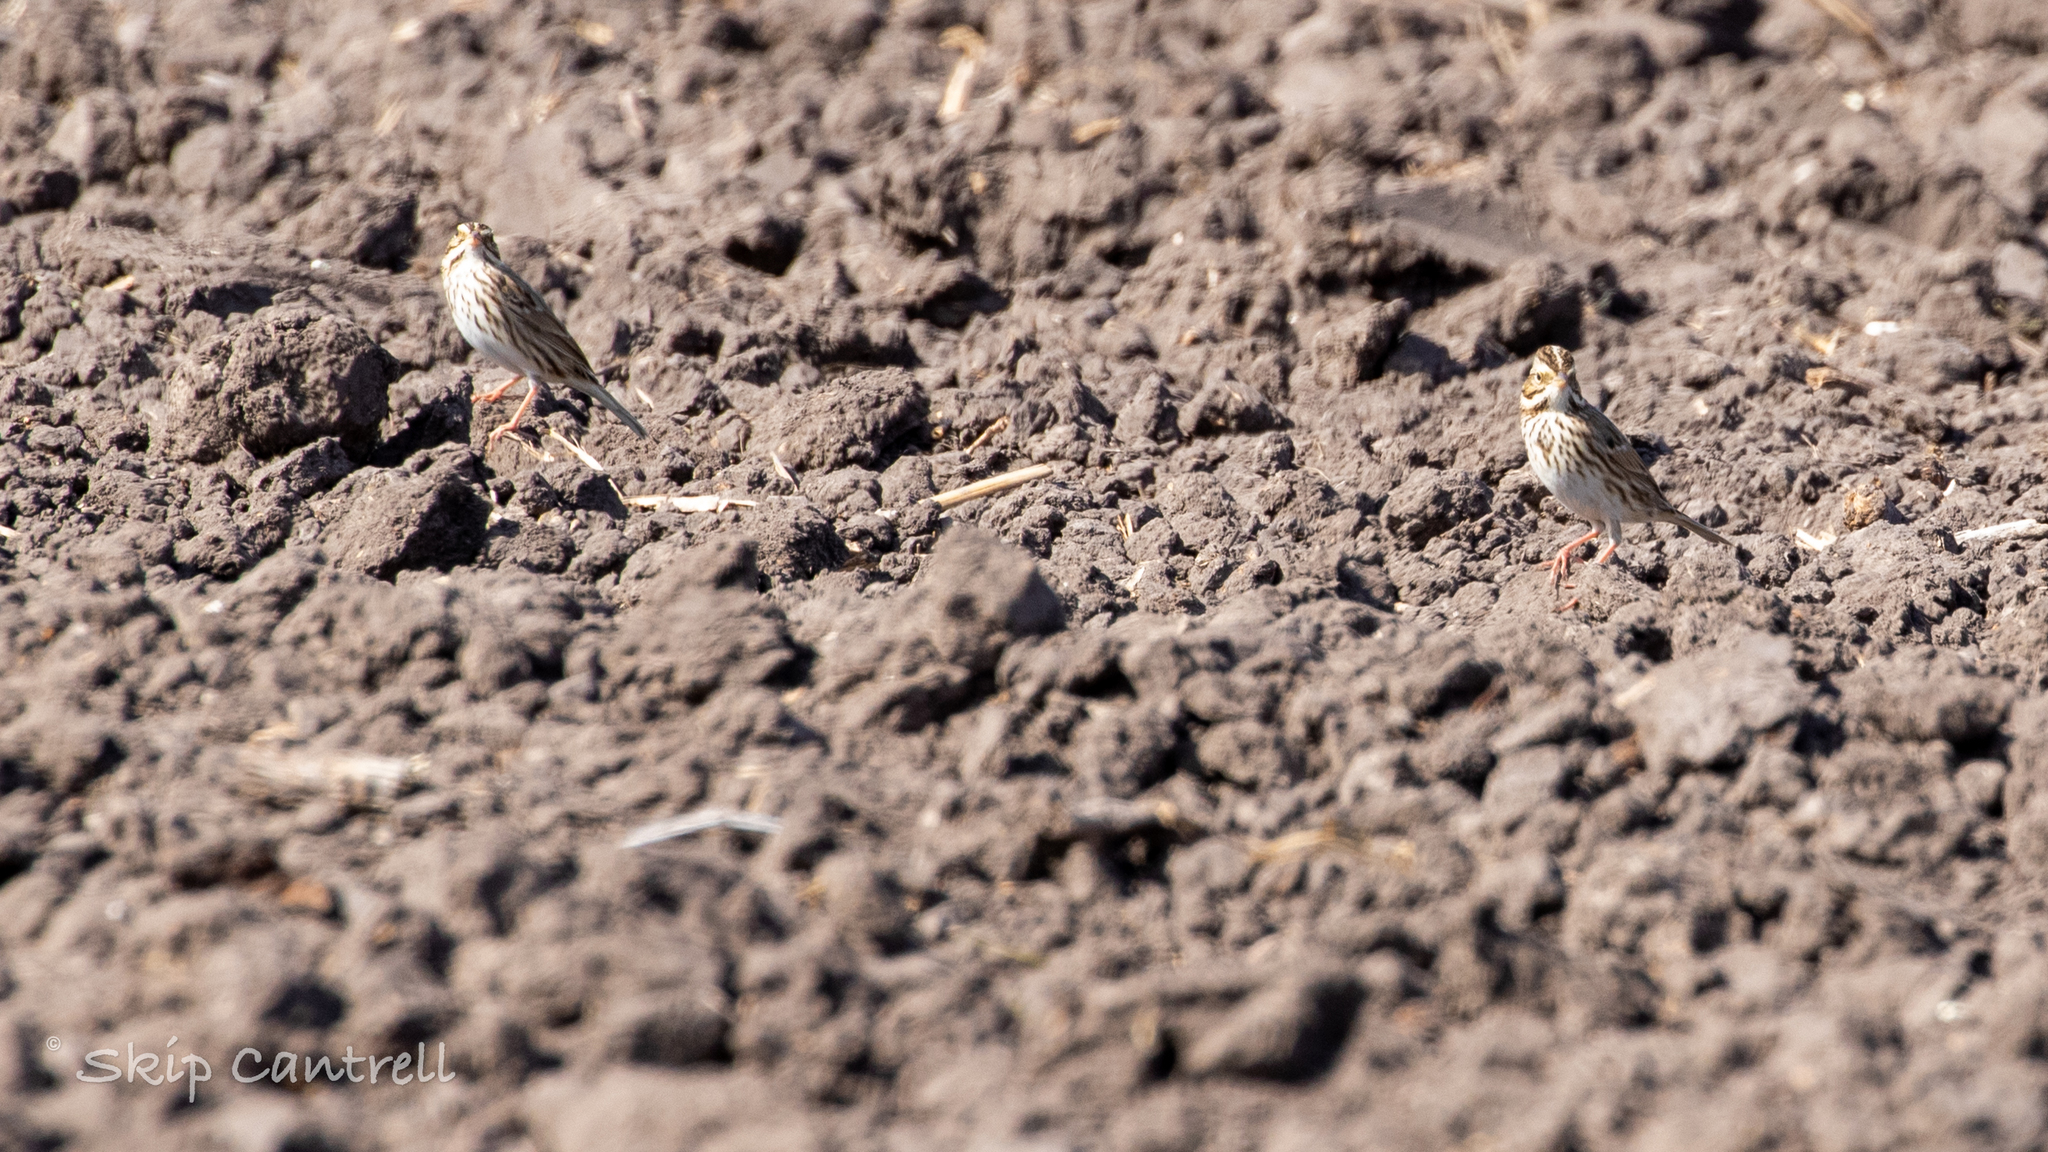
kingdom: Animalia
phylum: Chordata
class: Aves
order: Passeriformes
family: Passerellidae
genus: Passerculus
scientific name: Passerculus sandwichensis
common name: Savannah sparrow
